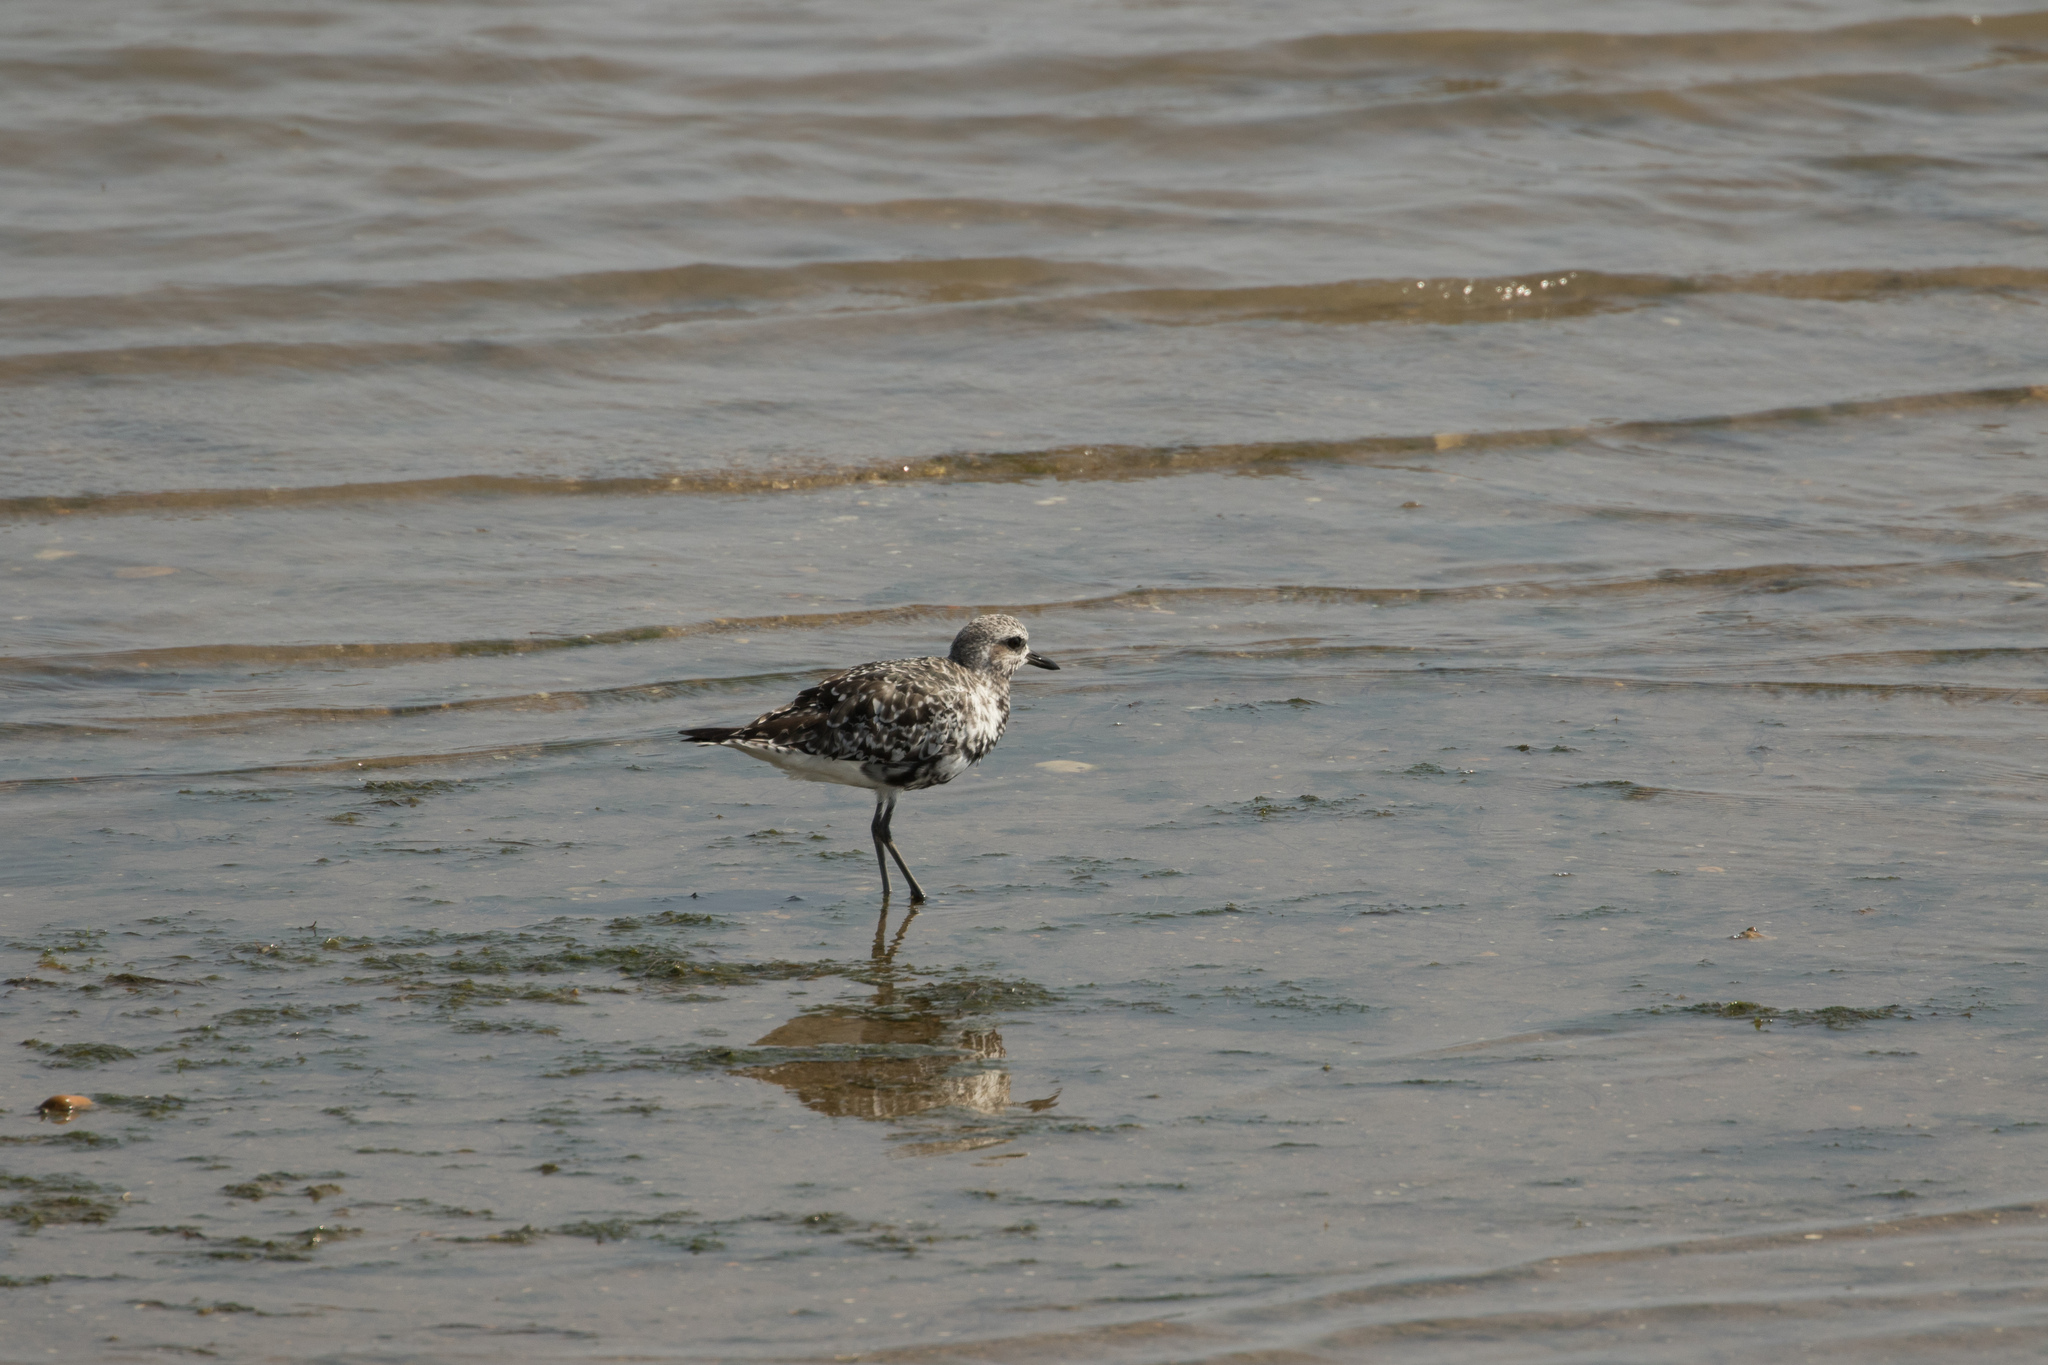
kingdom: Animalia
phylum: Chordata
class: Aves
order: Charadriiformes
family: Charadriidae
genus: Pluvialis
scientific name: Pluvialis squatarola
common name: Grey plover
